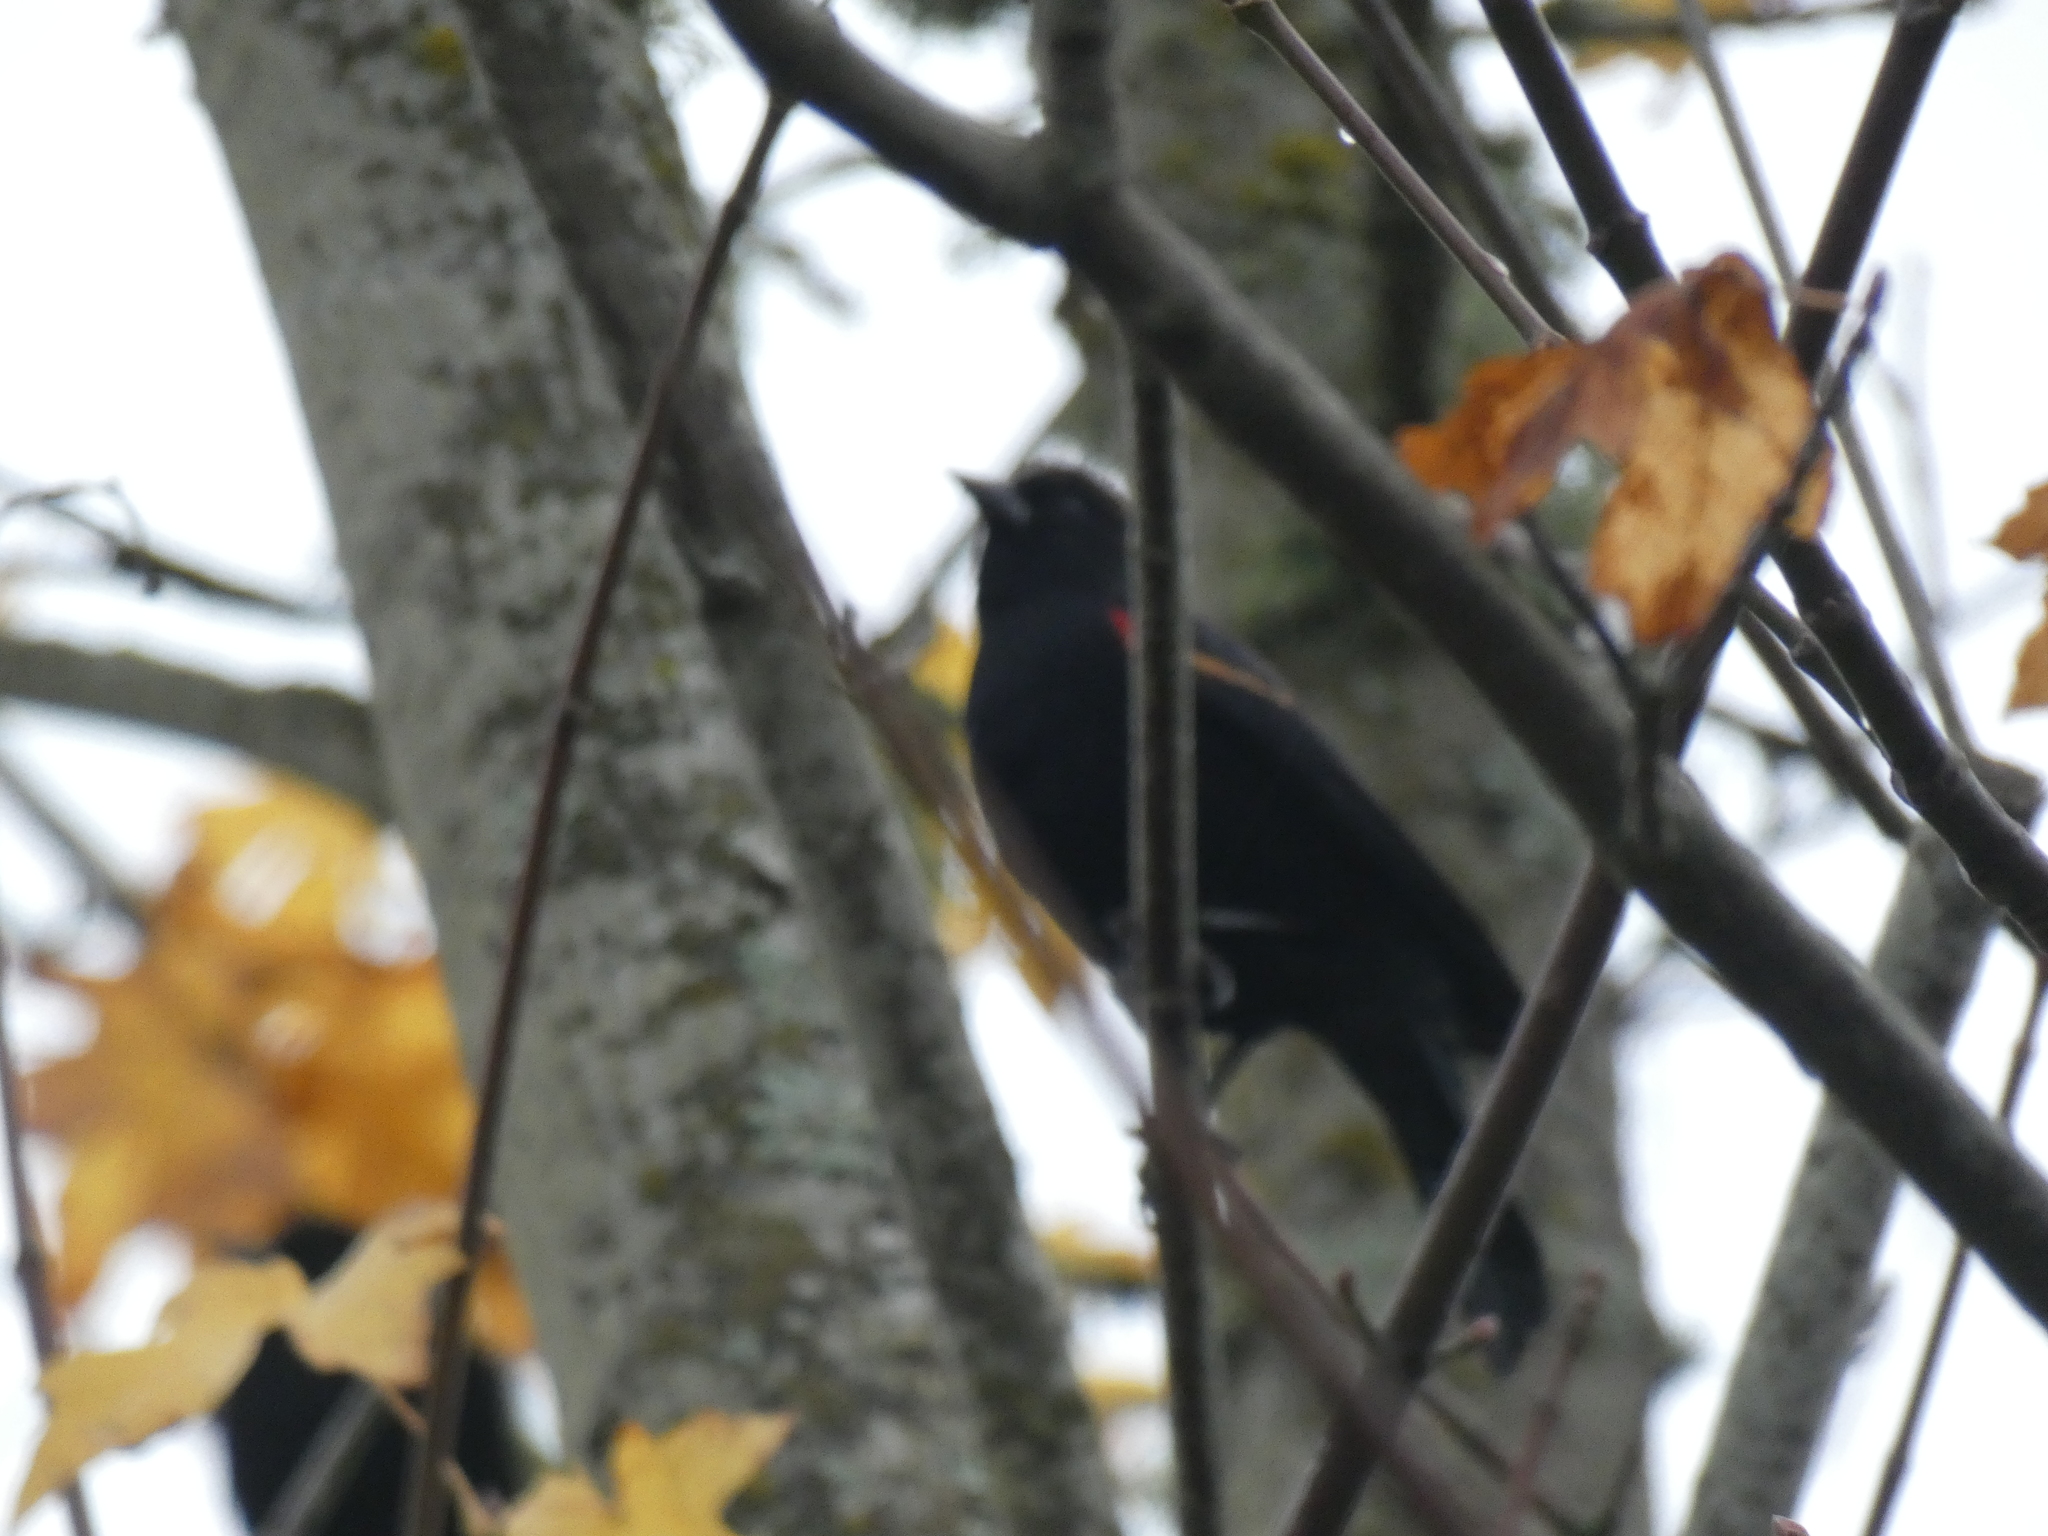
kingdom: Animalia
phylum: Chordata
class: Aves
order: Passeriformes
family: Icteridae
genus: Agelaius
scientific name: Agelaius phoeniceus
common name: Red-winged blackbird
